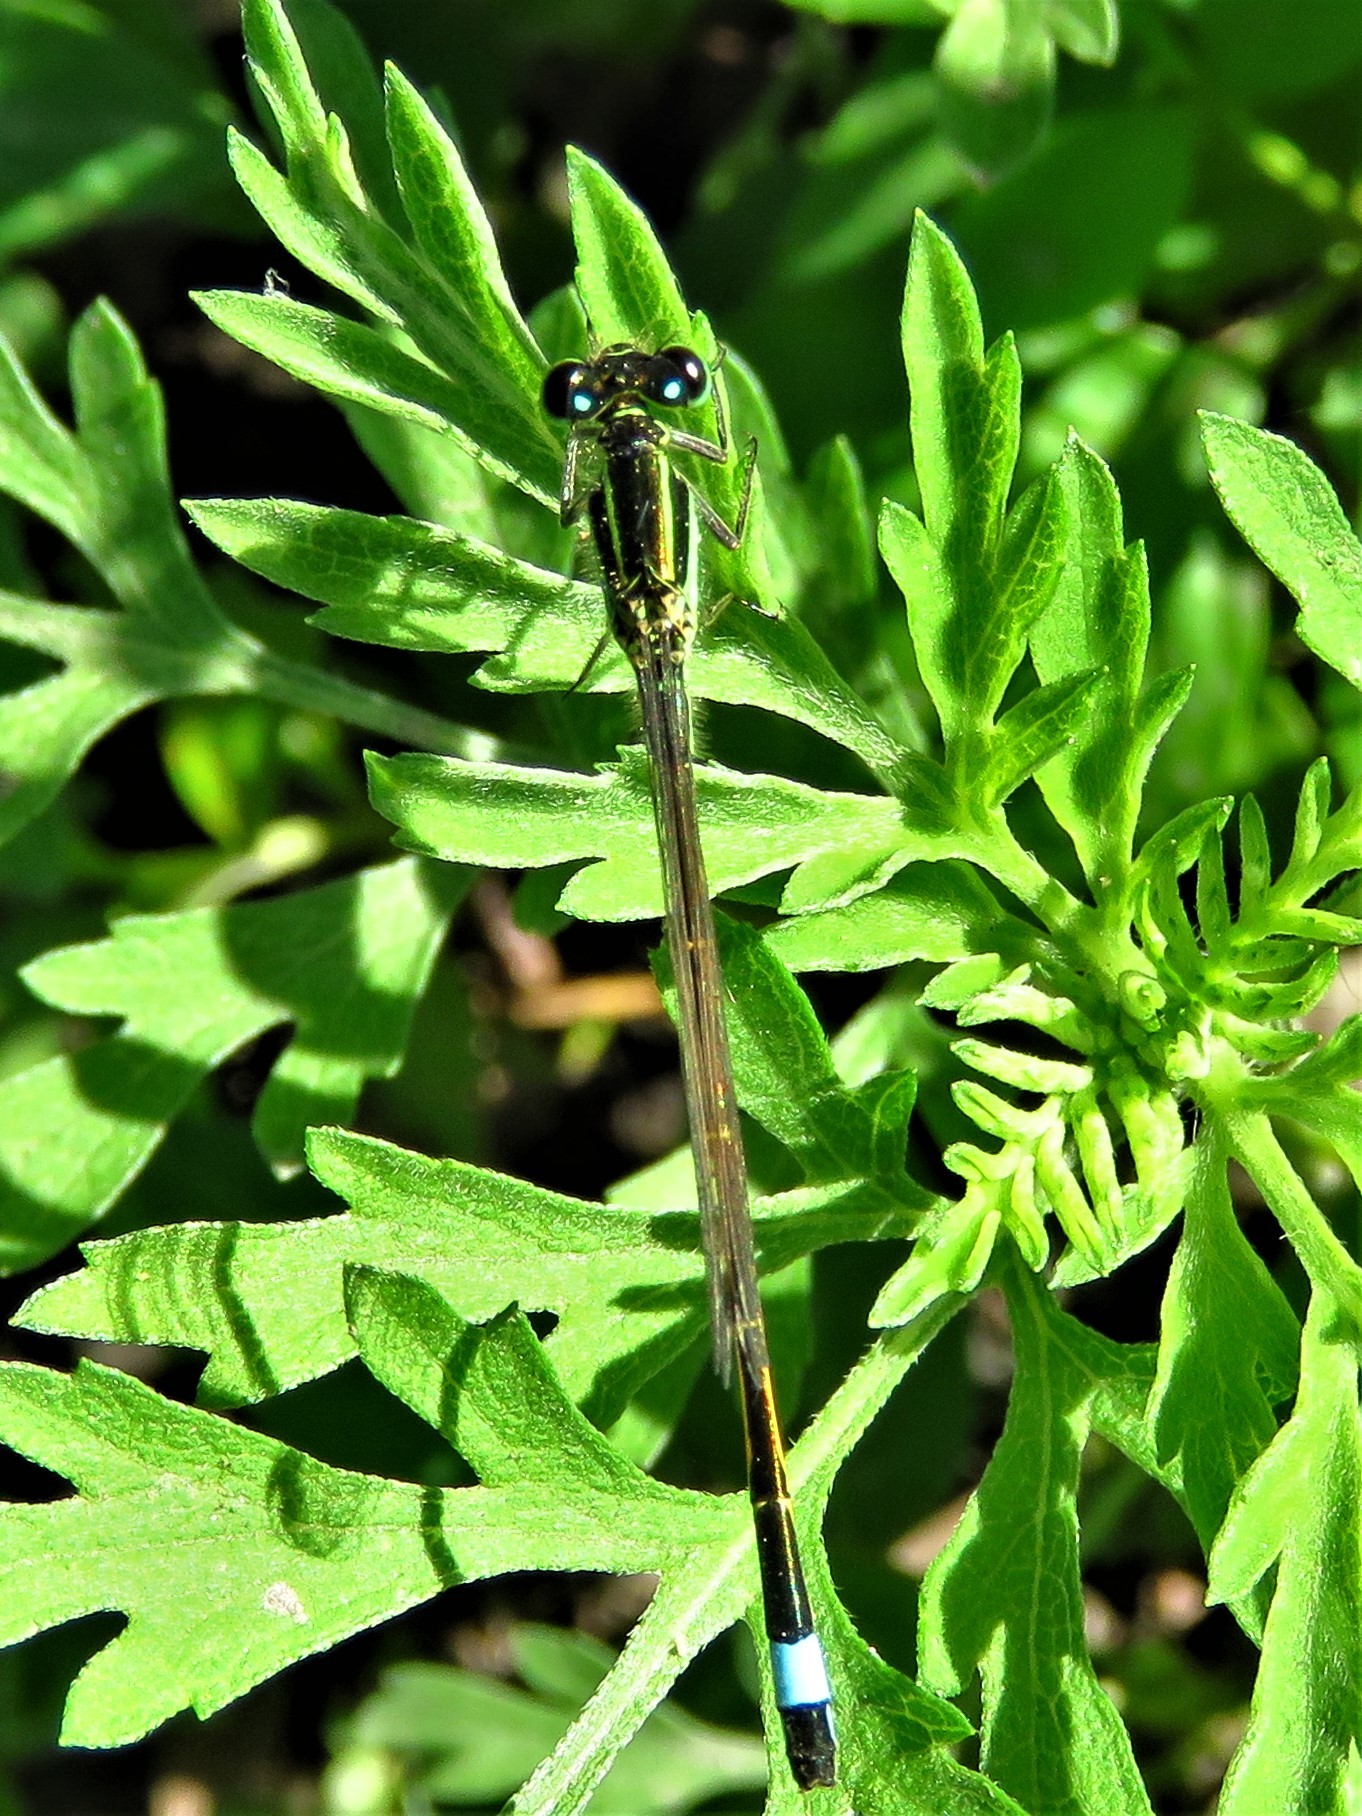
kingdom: Animalia
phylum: Arthropoda
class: Insecta
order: Odonata
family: Coenagrionidae
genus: Ischnura
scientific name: Ischnura ramburii
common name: Rambur's forktail
